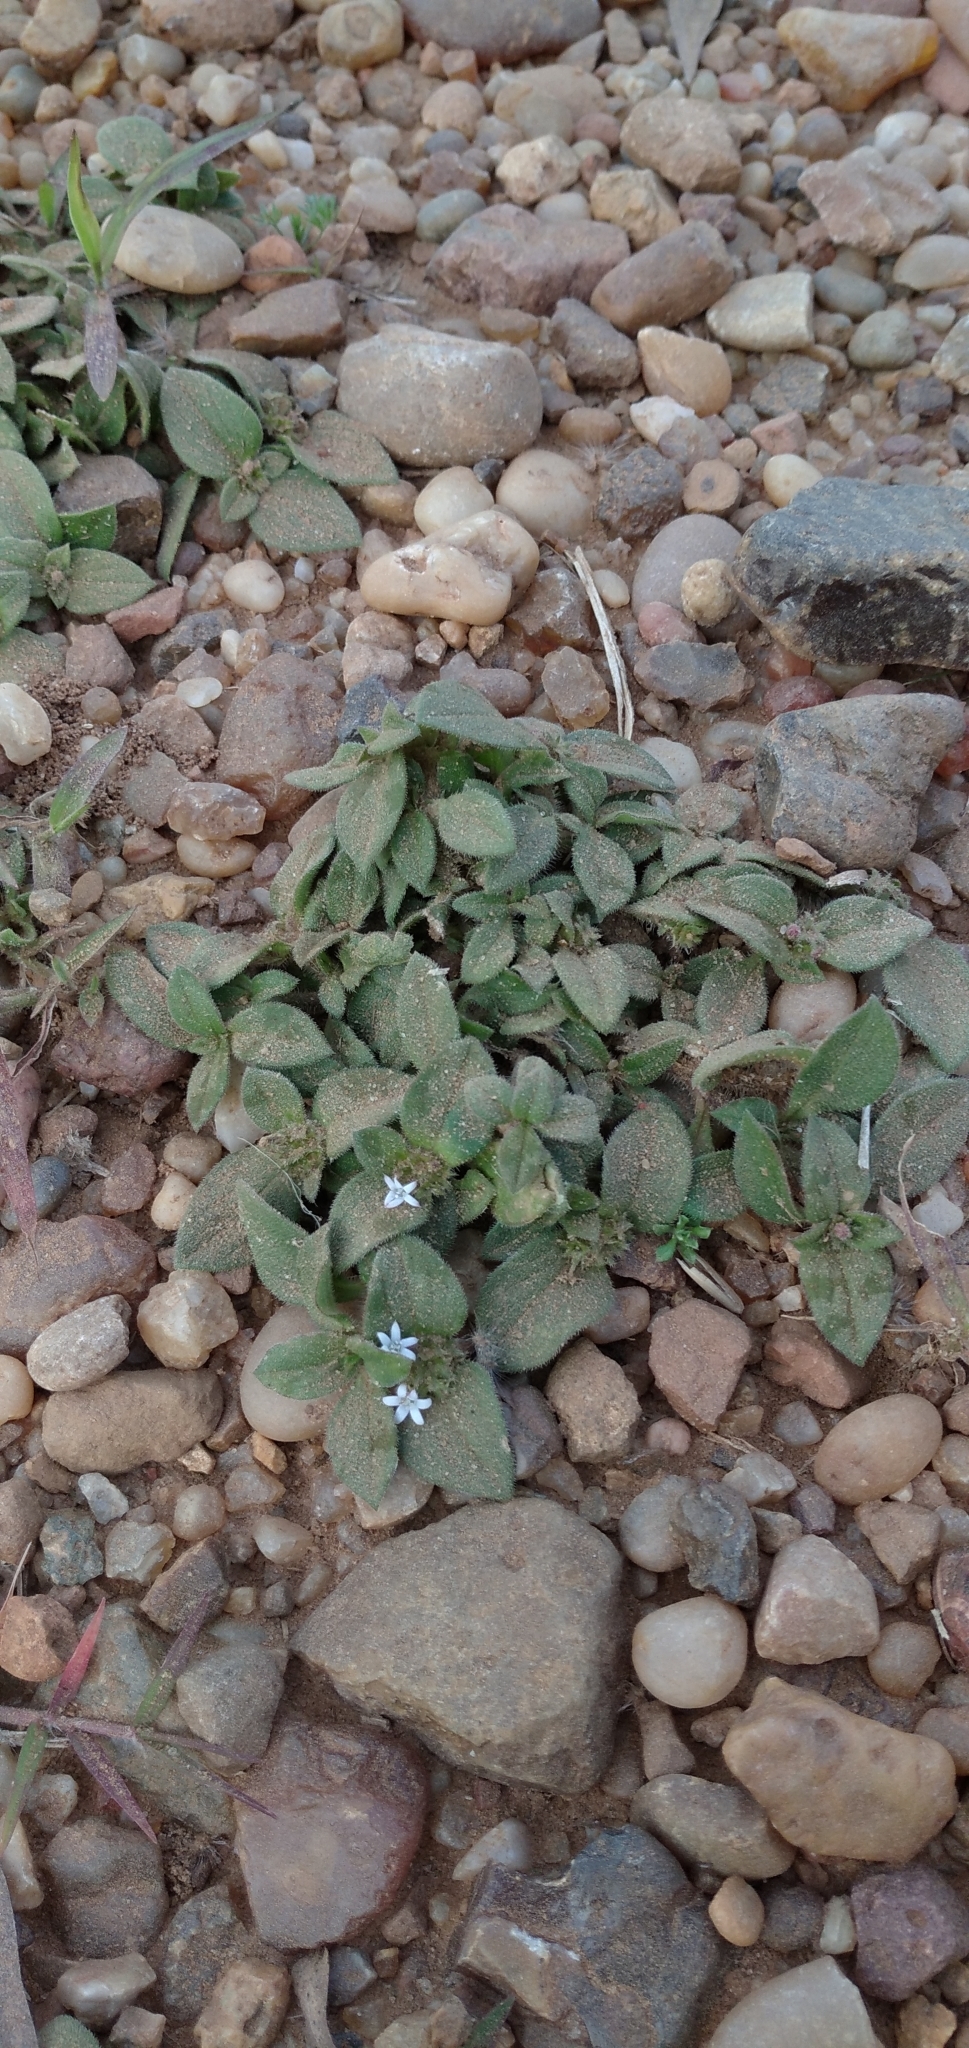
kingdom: Plantae
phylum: Tracheophyta
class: Magnoliopsida
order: Gentianales
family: Rubiaceae
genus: Richardia
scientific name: Richardia brasiliensis
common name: Tropical mexican clover
